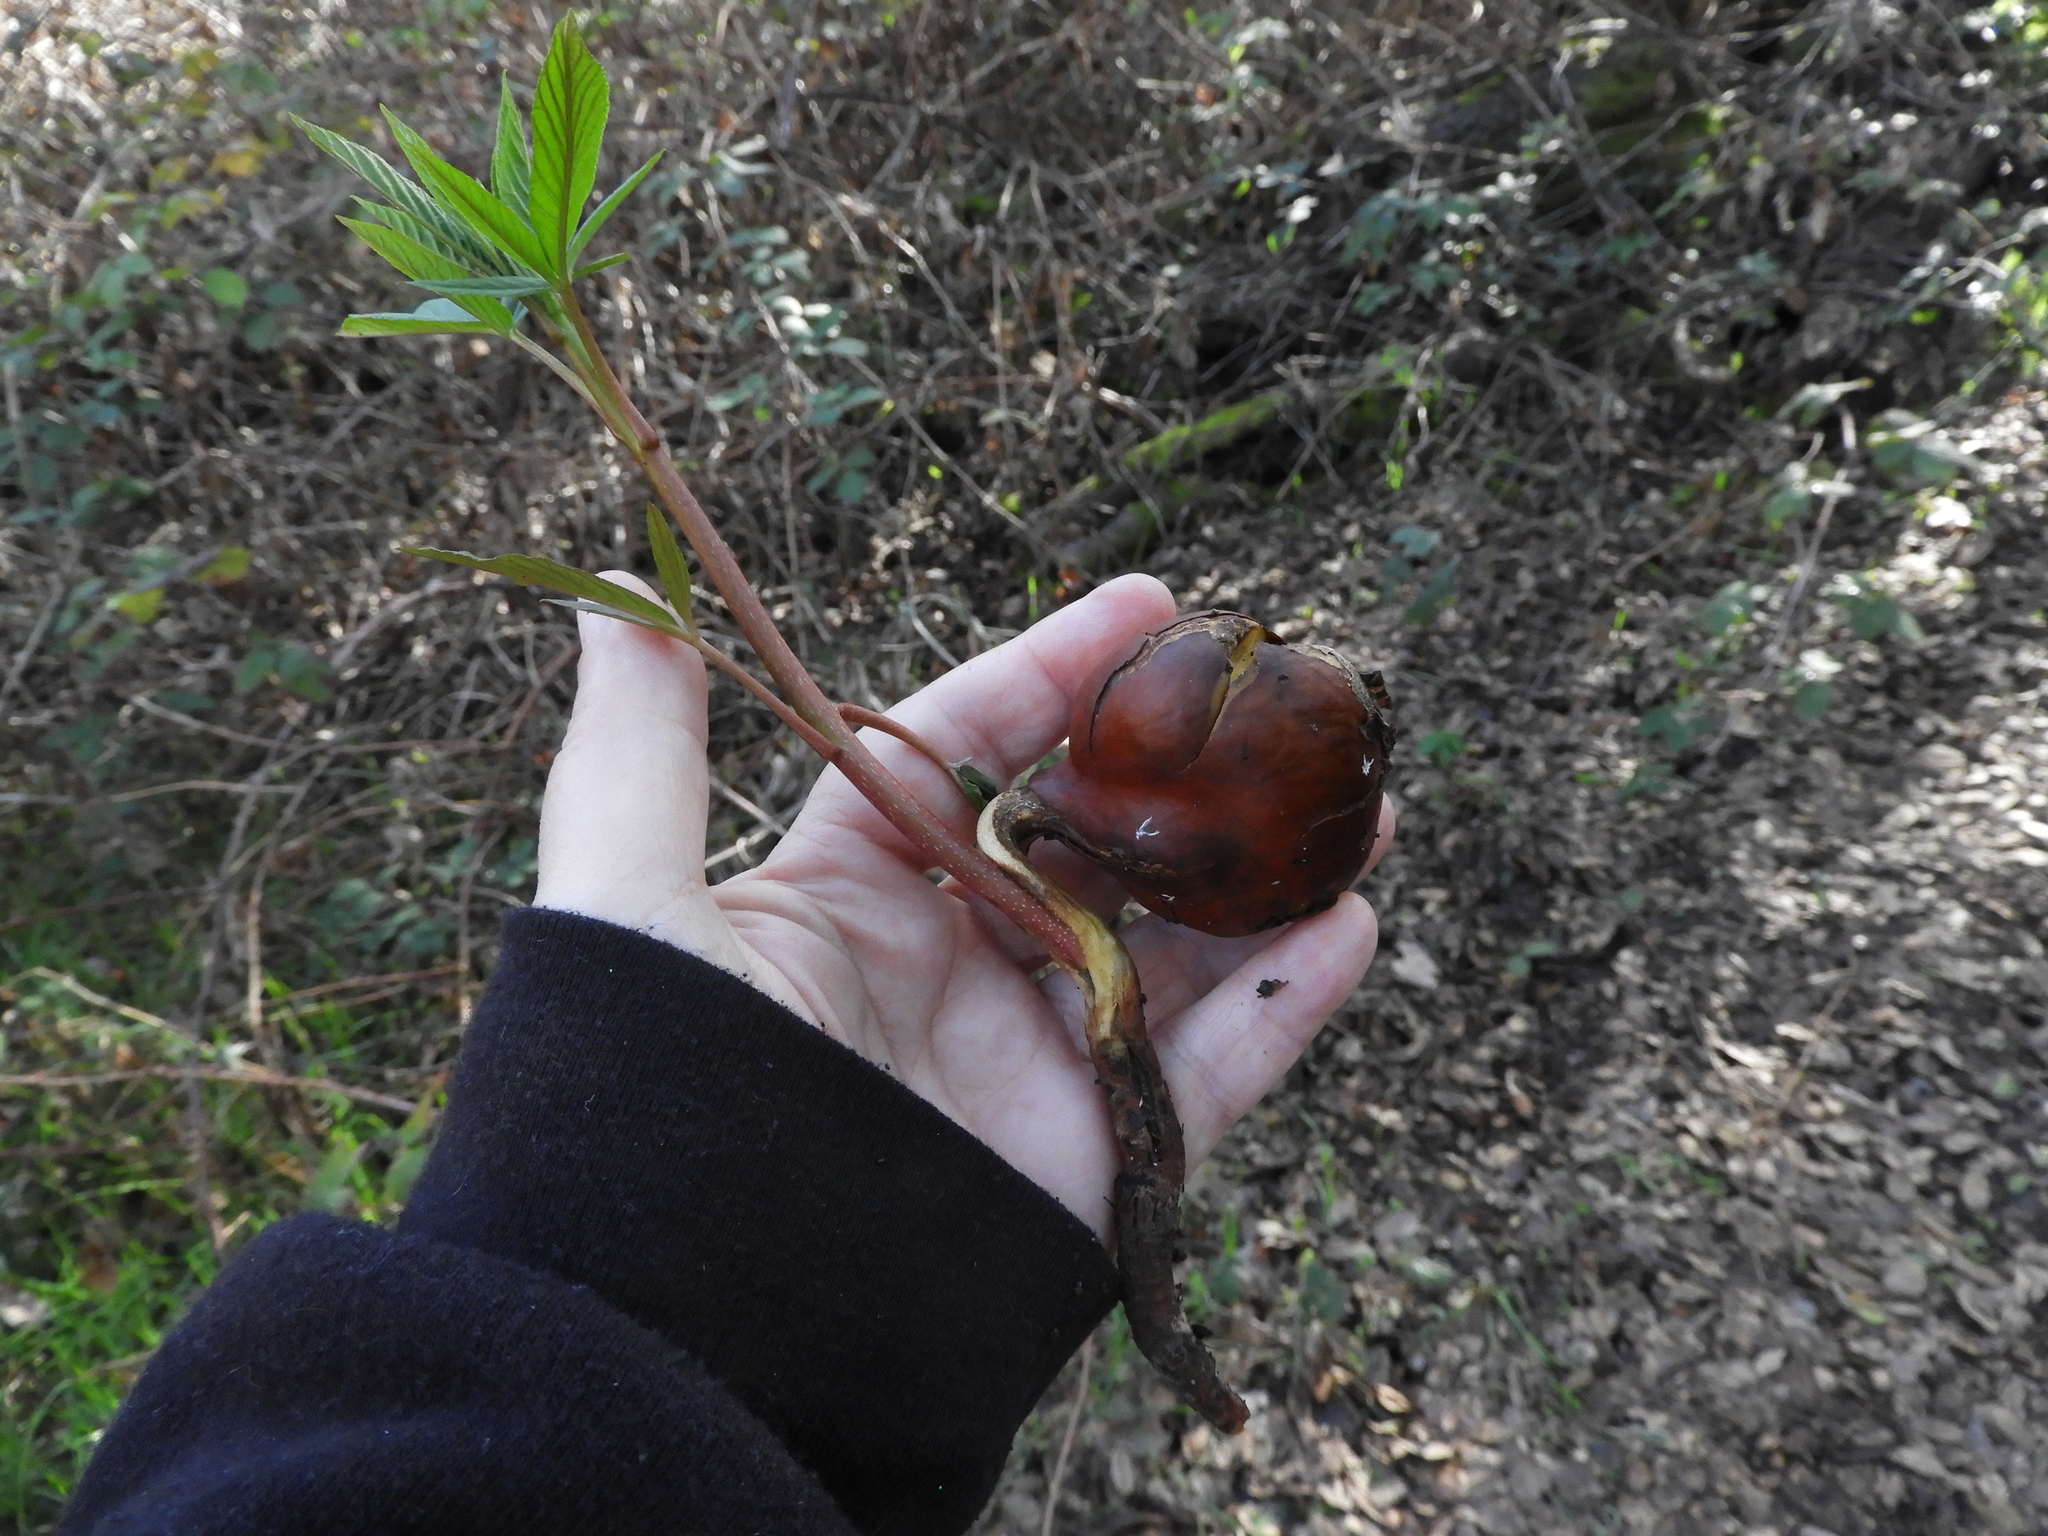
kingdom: Plantae
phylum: Tracheophyta
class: Magnoliopsida
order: Sapindales
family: Sapindaceae
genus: Aesculus
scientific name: Aesculus californica
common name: California buckeye
